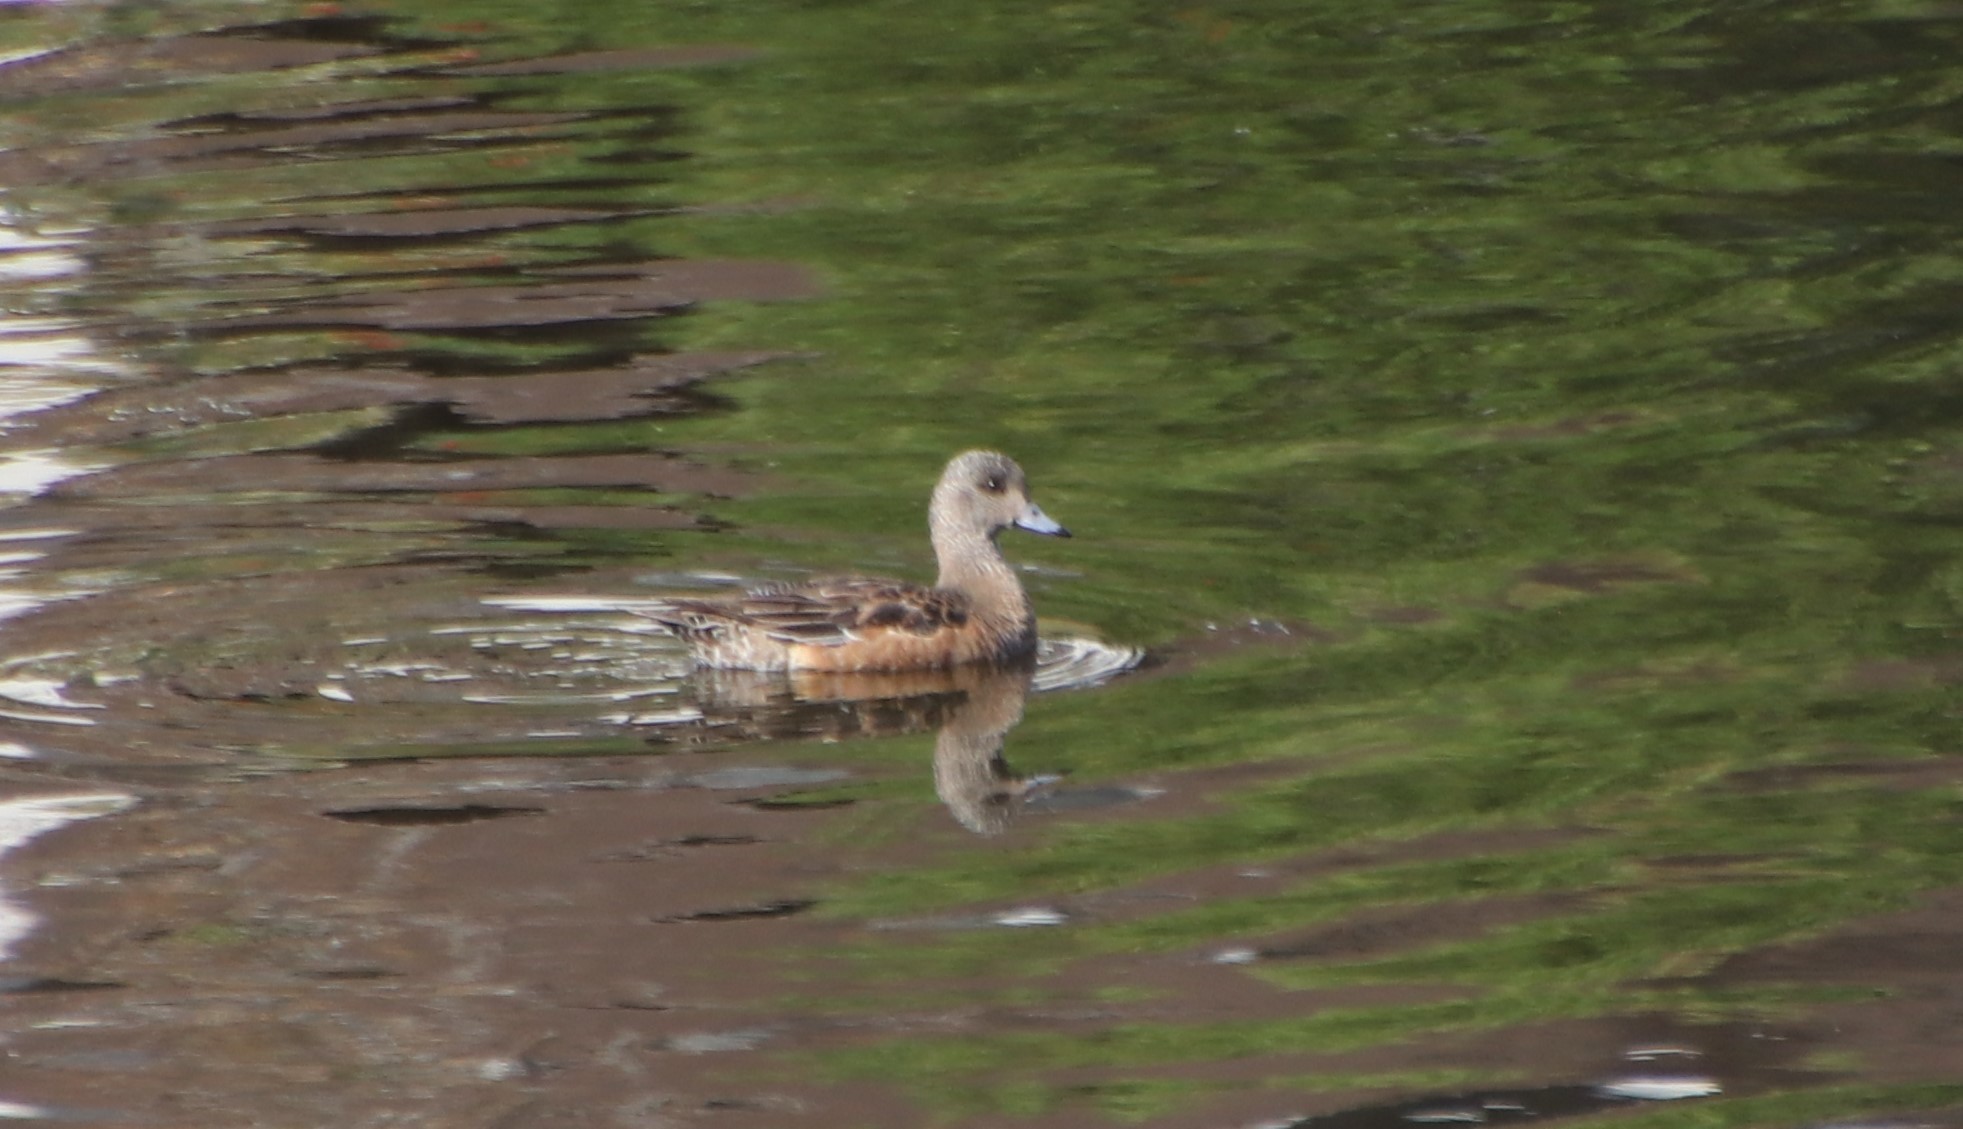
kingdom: Animalia
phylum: Chordata
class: Aves
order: Anseriformes
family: Anatidae
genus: Mareca
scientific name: Mareca americana
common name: American wigeon
